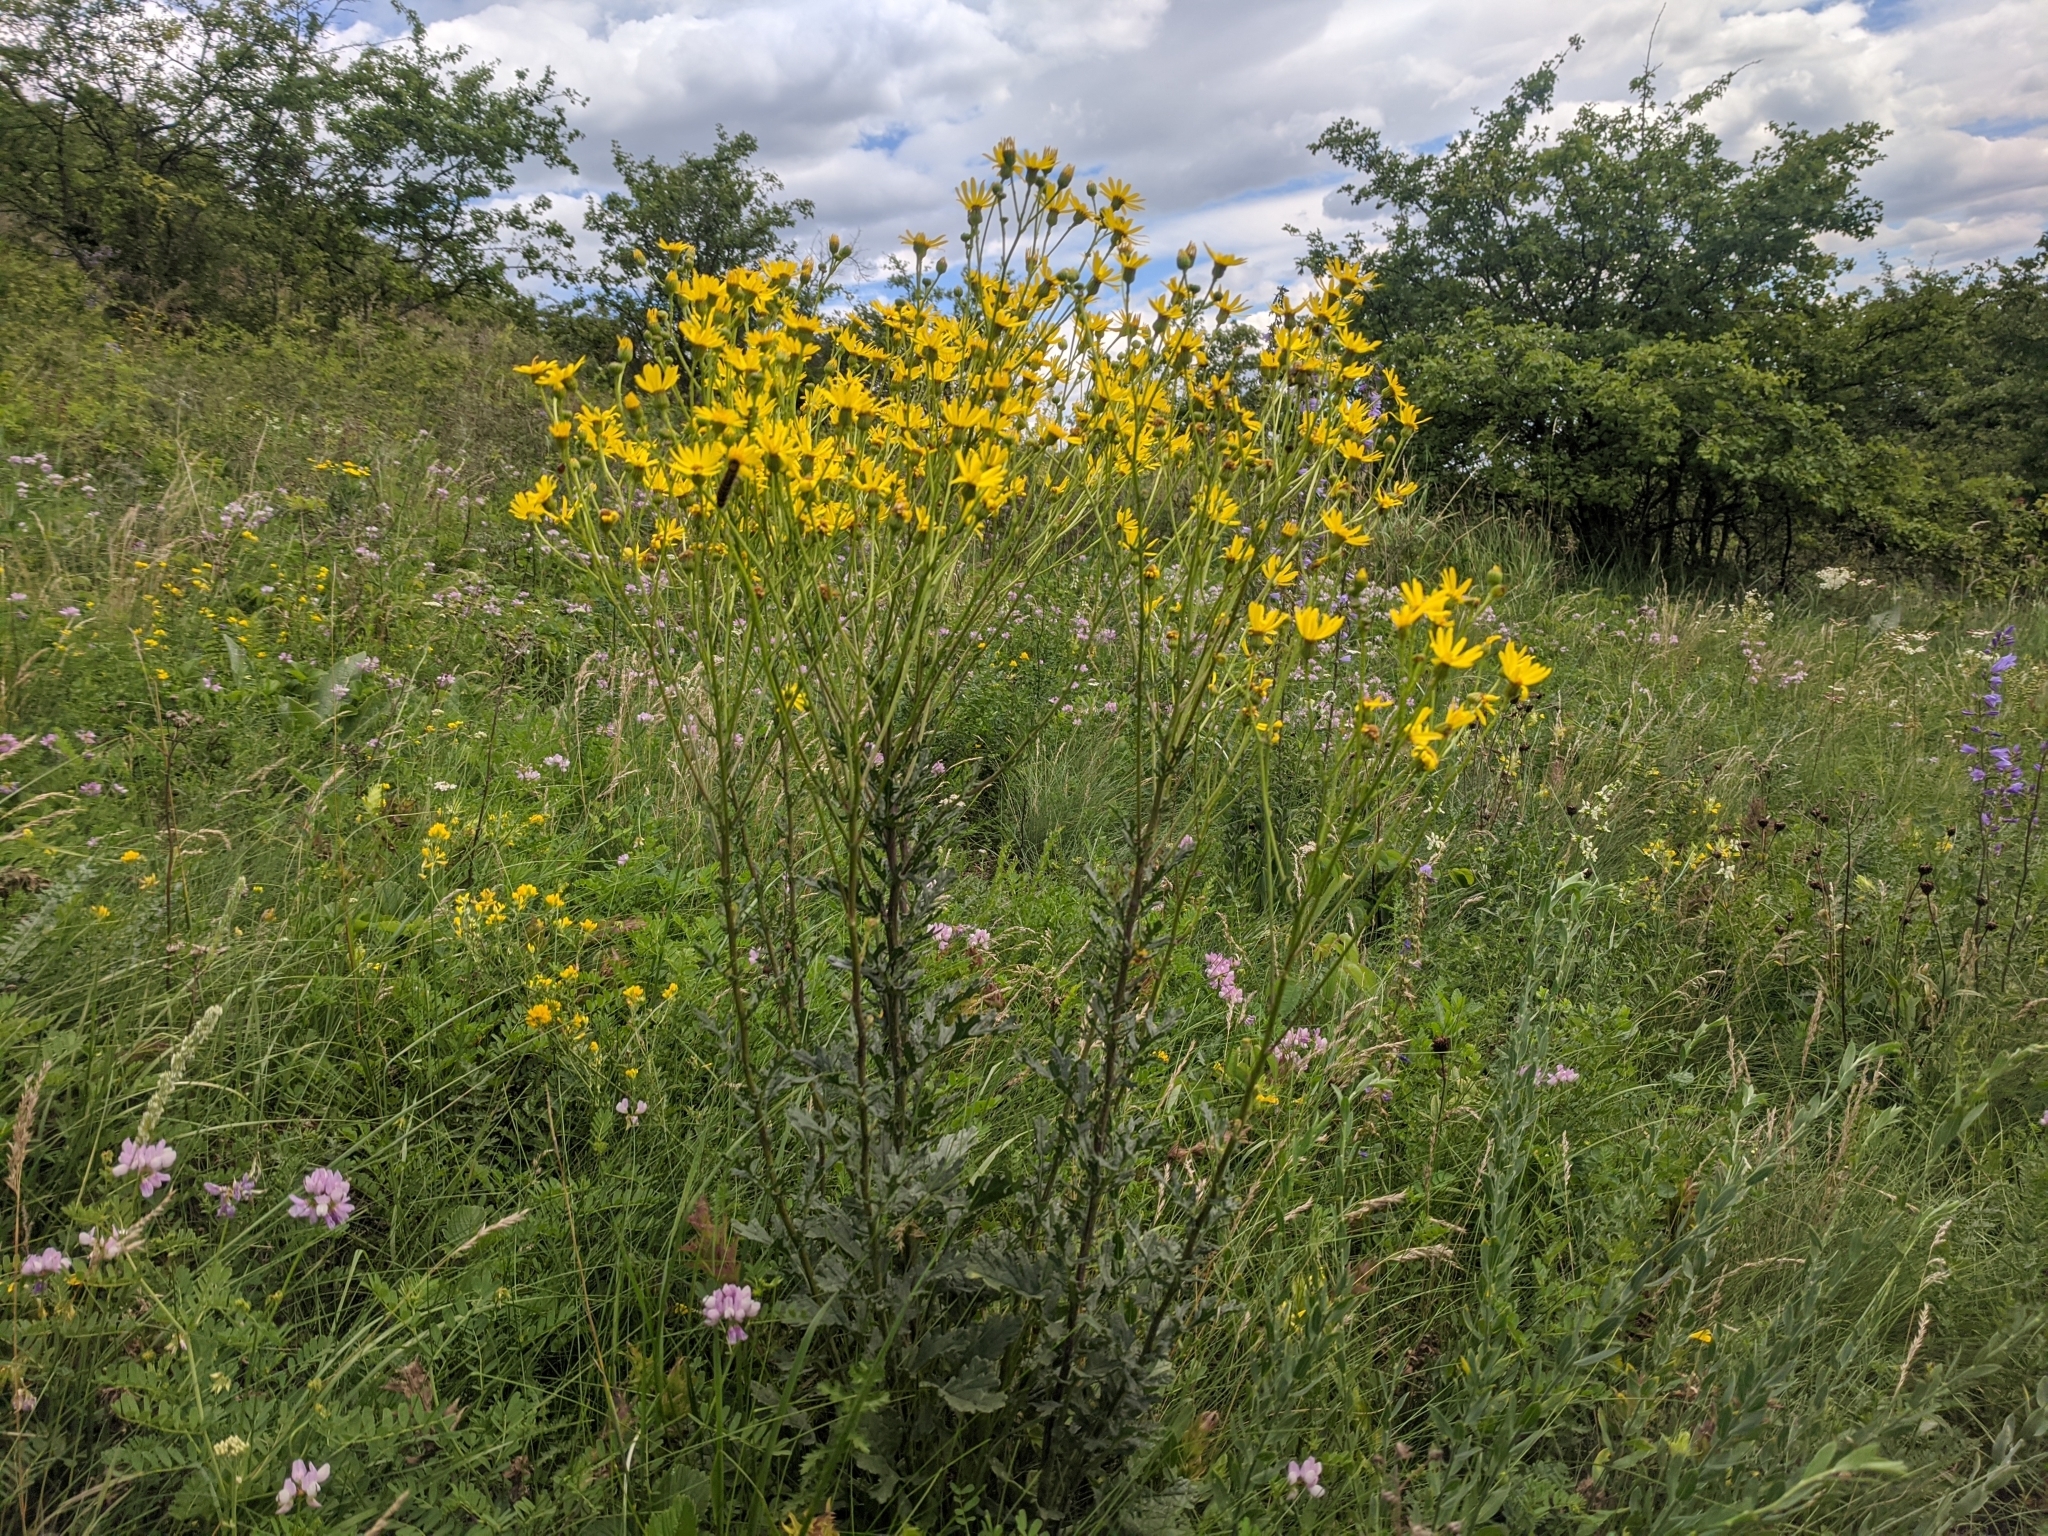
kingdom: Plantae
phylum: Tracheophyta
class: Magnoliopsida
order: Asterales
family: Asteraceae
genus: Jacobaea
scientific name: Jacobaea vulgaris
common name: Stinking willie
